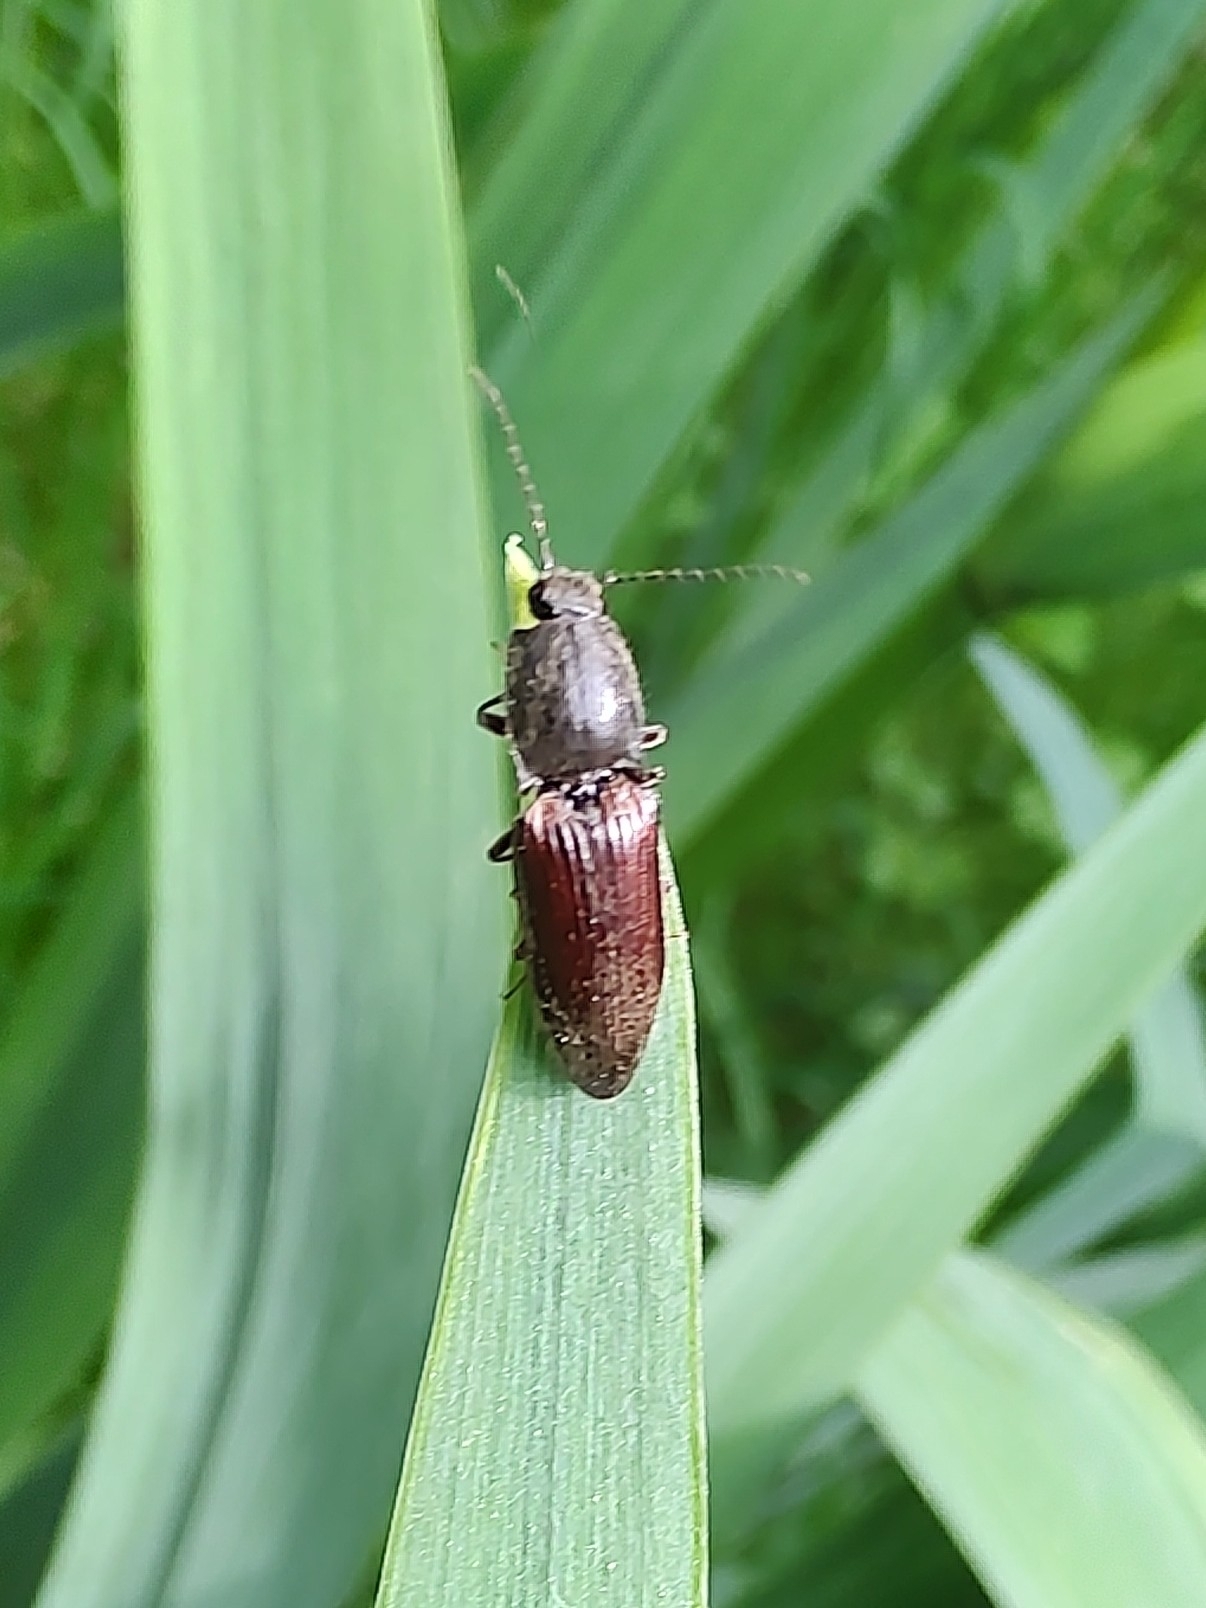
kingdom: Animalia
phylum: Arthropoda
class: Insecta
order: Coleoptera
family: Elateridae
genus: Athous
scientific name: Athous haemorrhoidalis
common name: Red-brown click beetle
